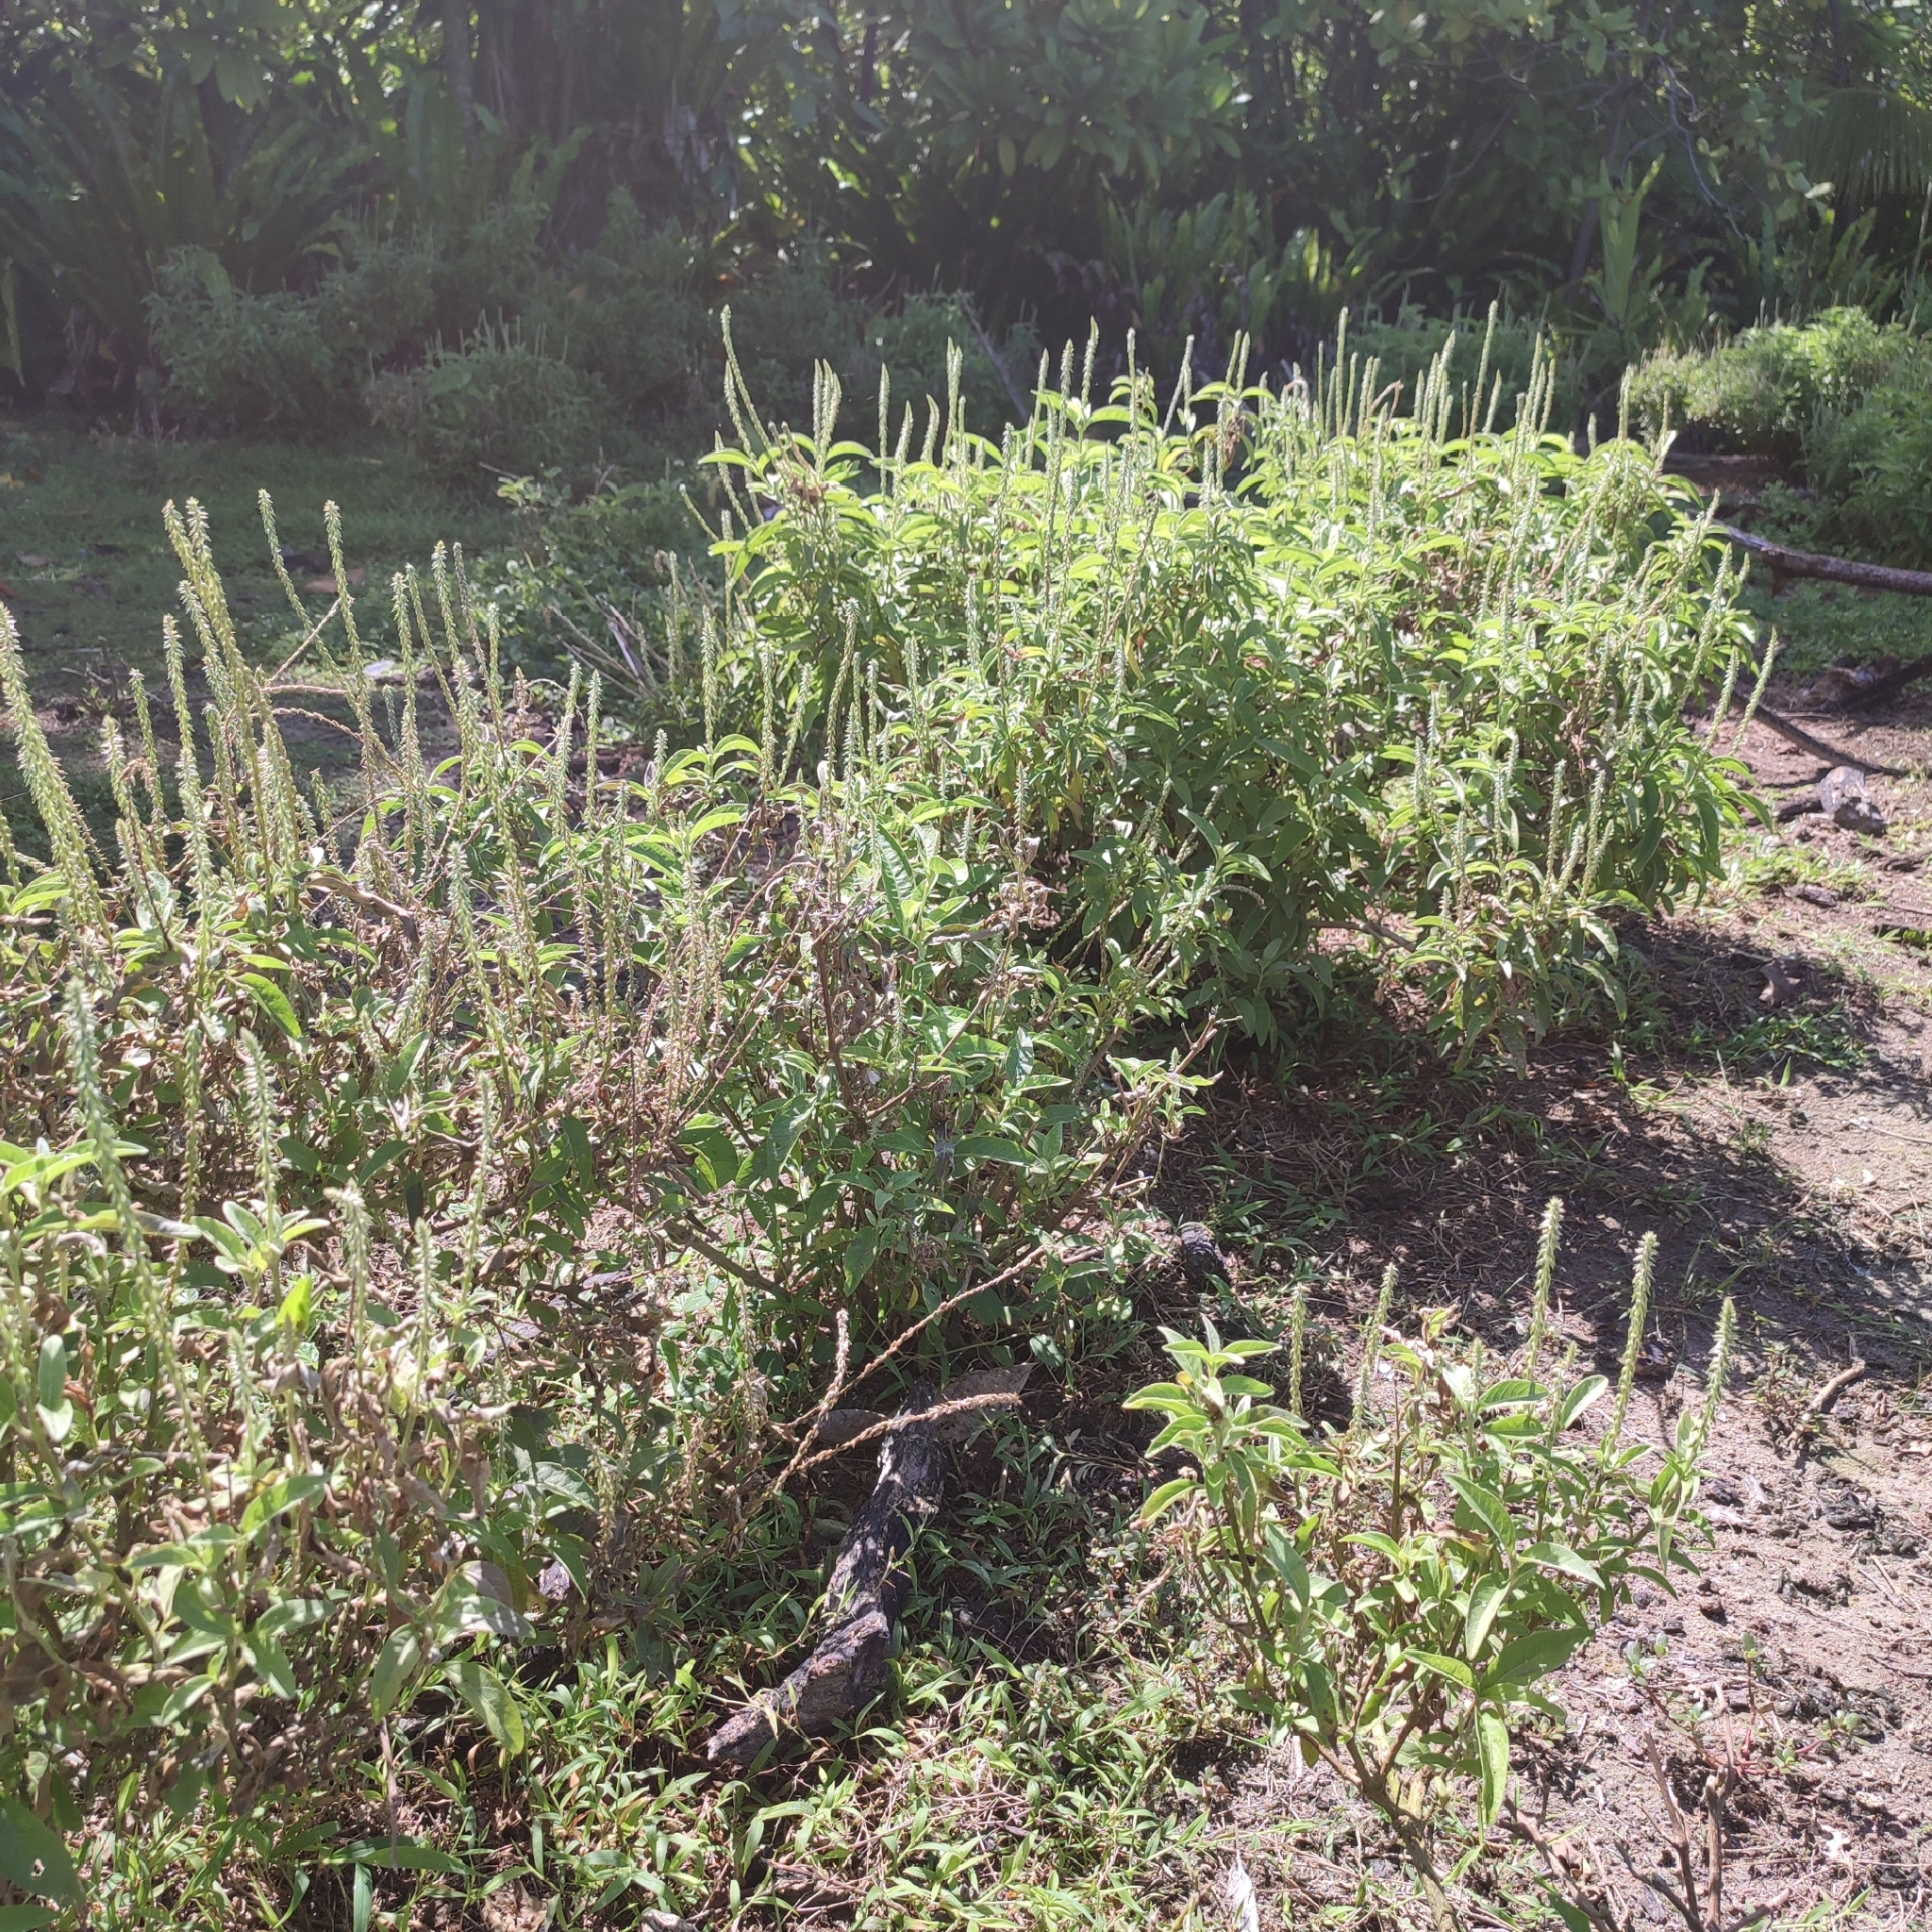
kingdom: Plantae
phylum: Tracheophyta
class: Magnoliopsida
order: Caryophyllales
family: Amaranthaceae
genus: Achyranthes
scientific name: Achyranthes aspera
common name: Devil's horsewhip
